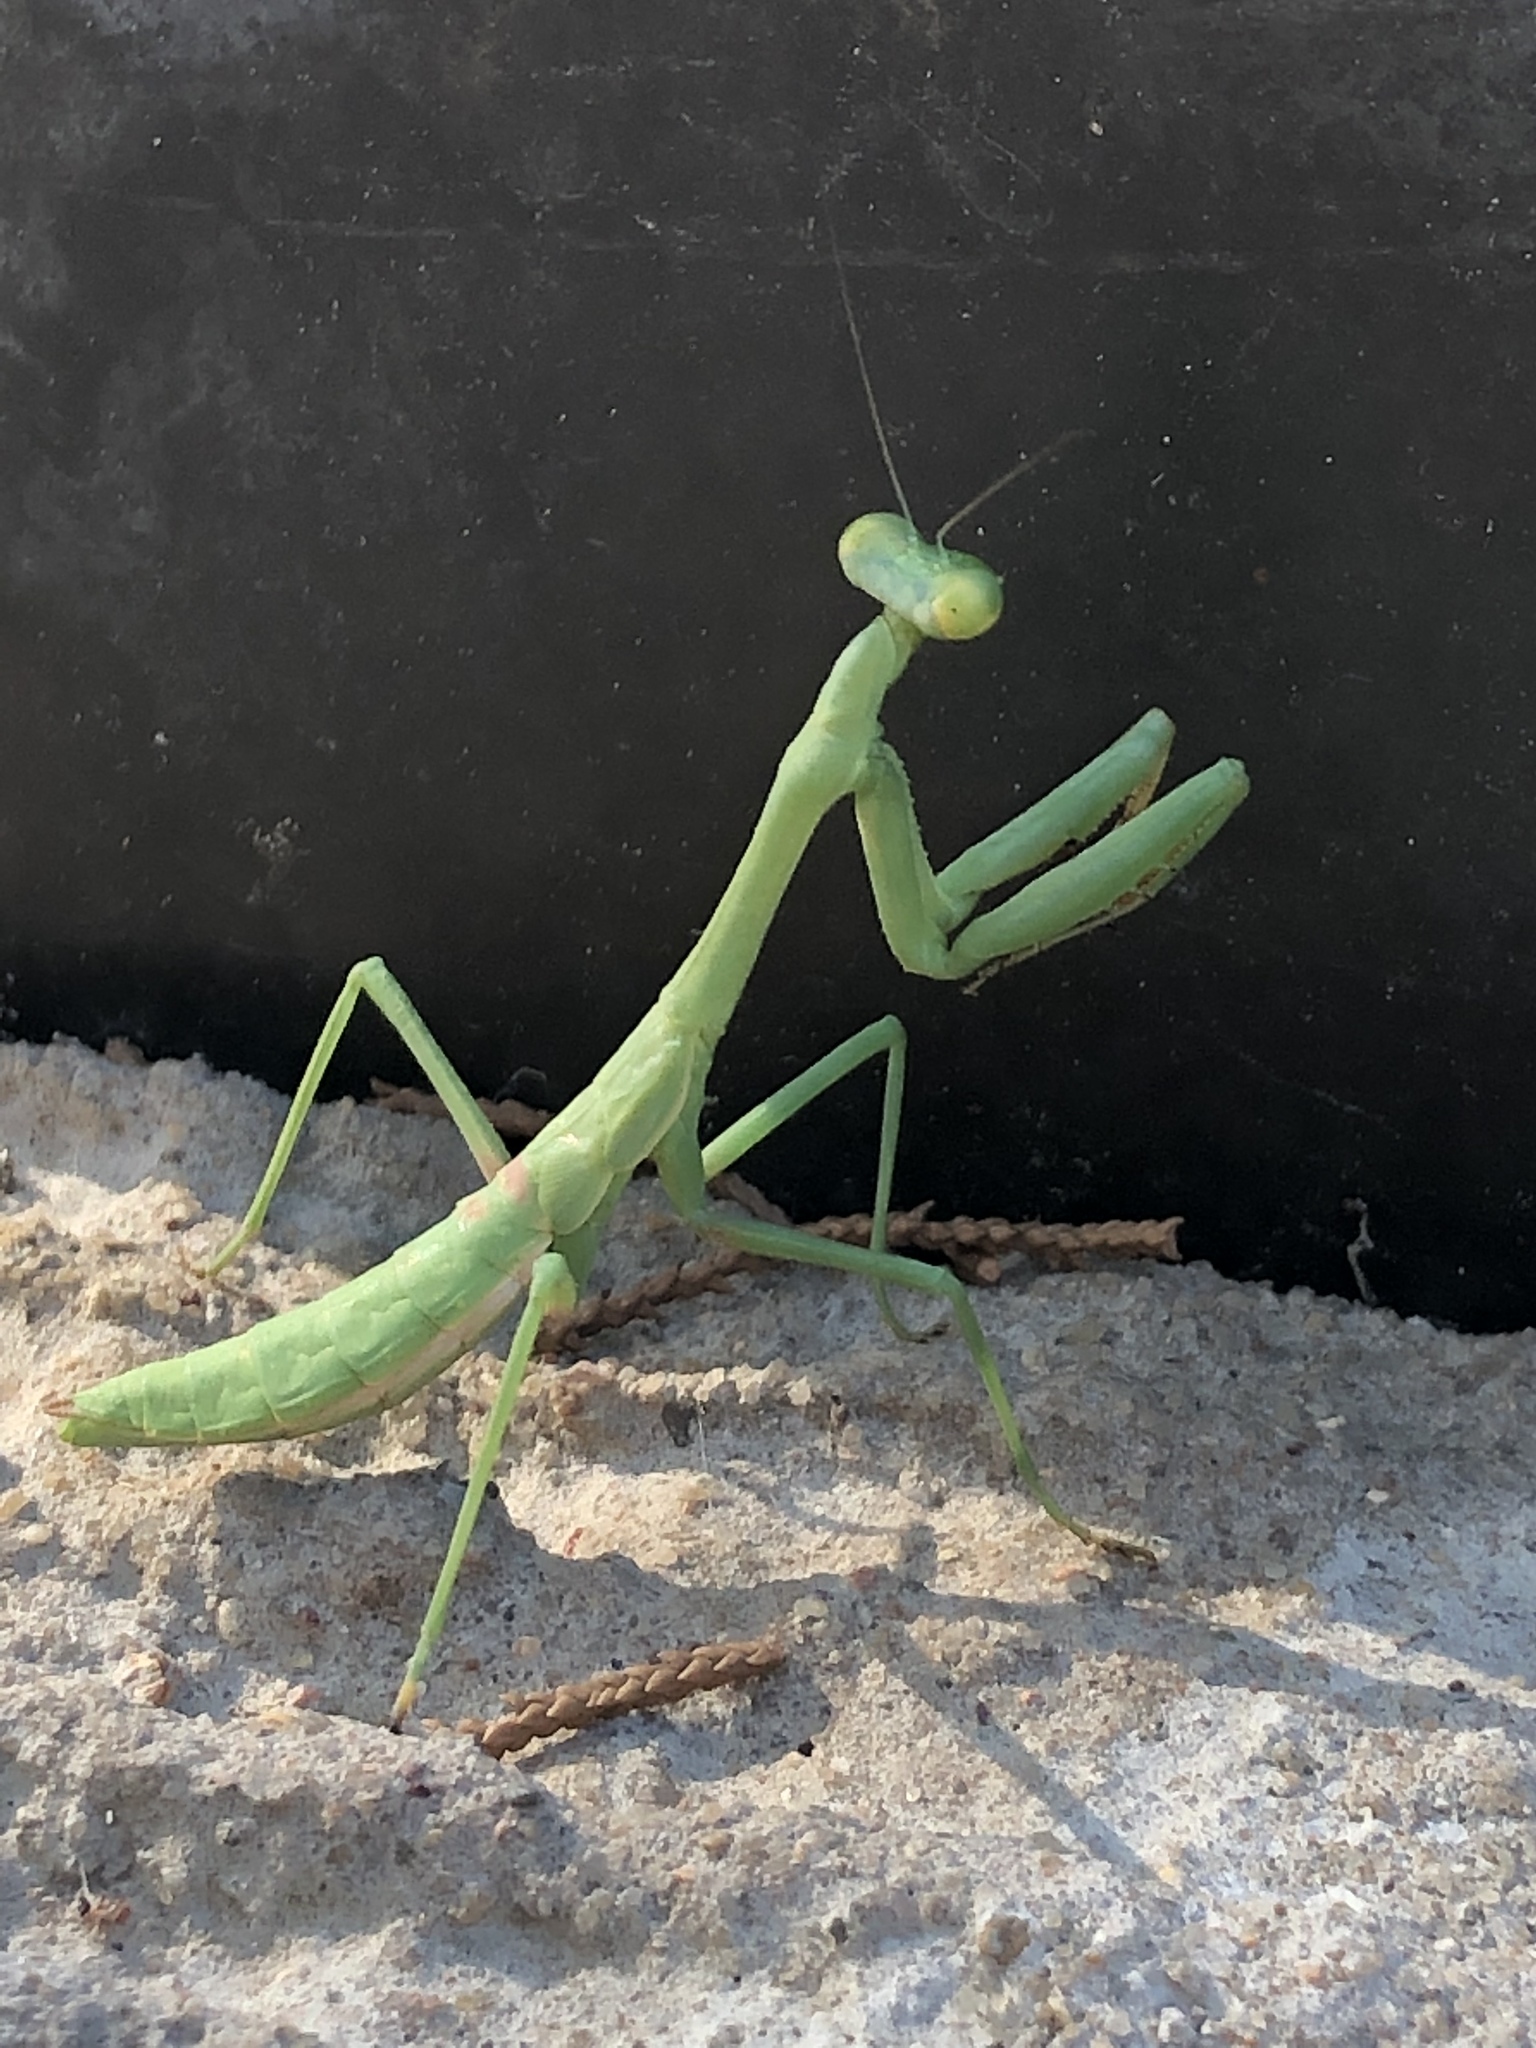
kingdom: Animalia
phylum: Arthropoda
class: Insecta
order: Mantodea
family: Mantidae
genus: Stagmomantis
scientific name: Stagmomantis carolina
